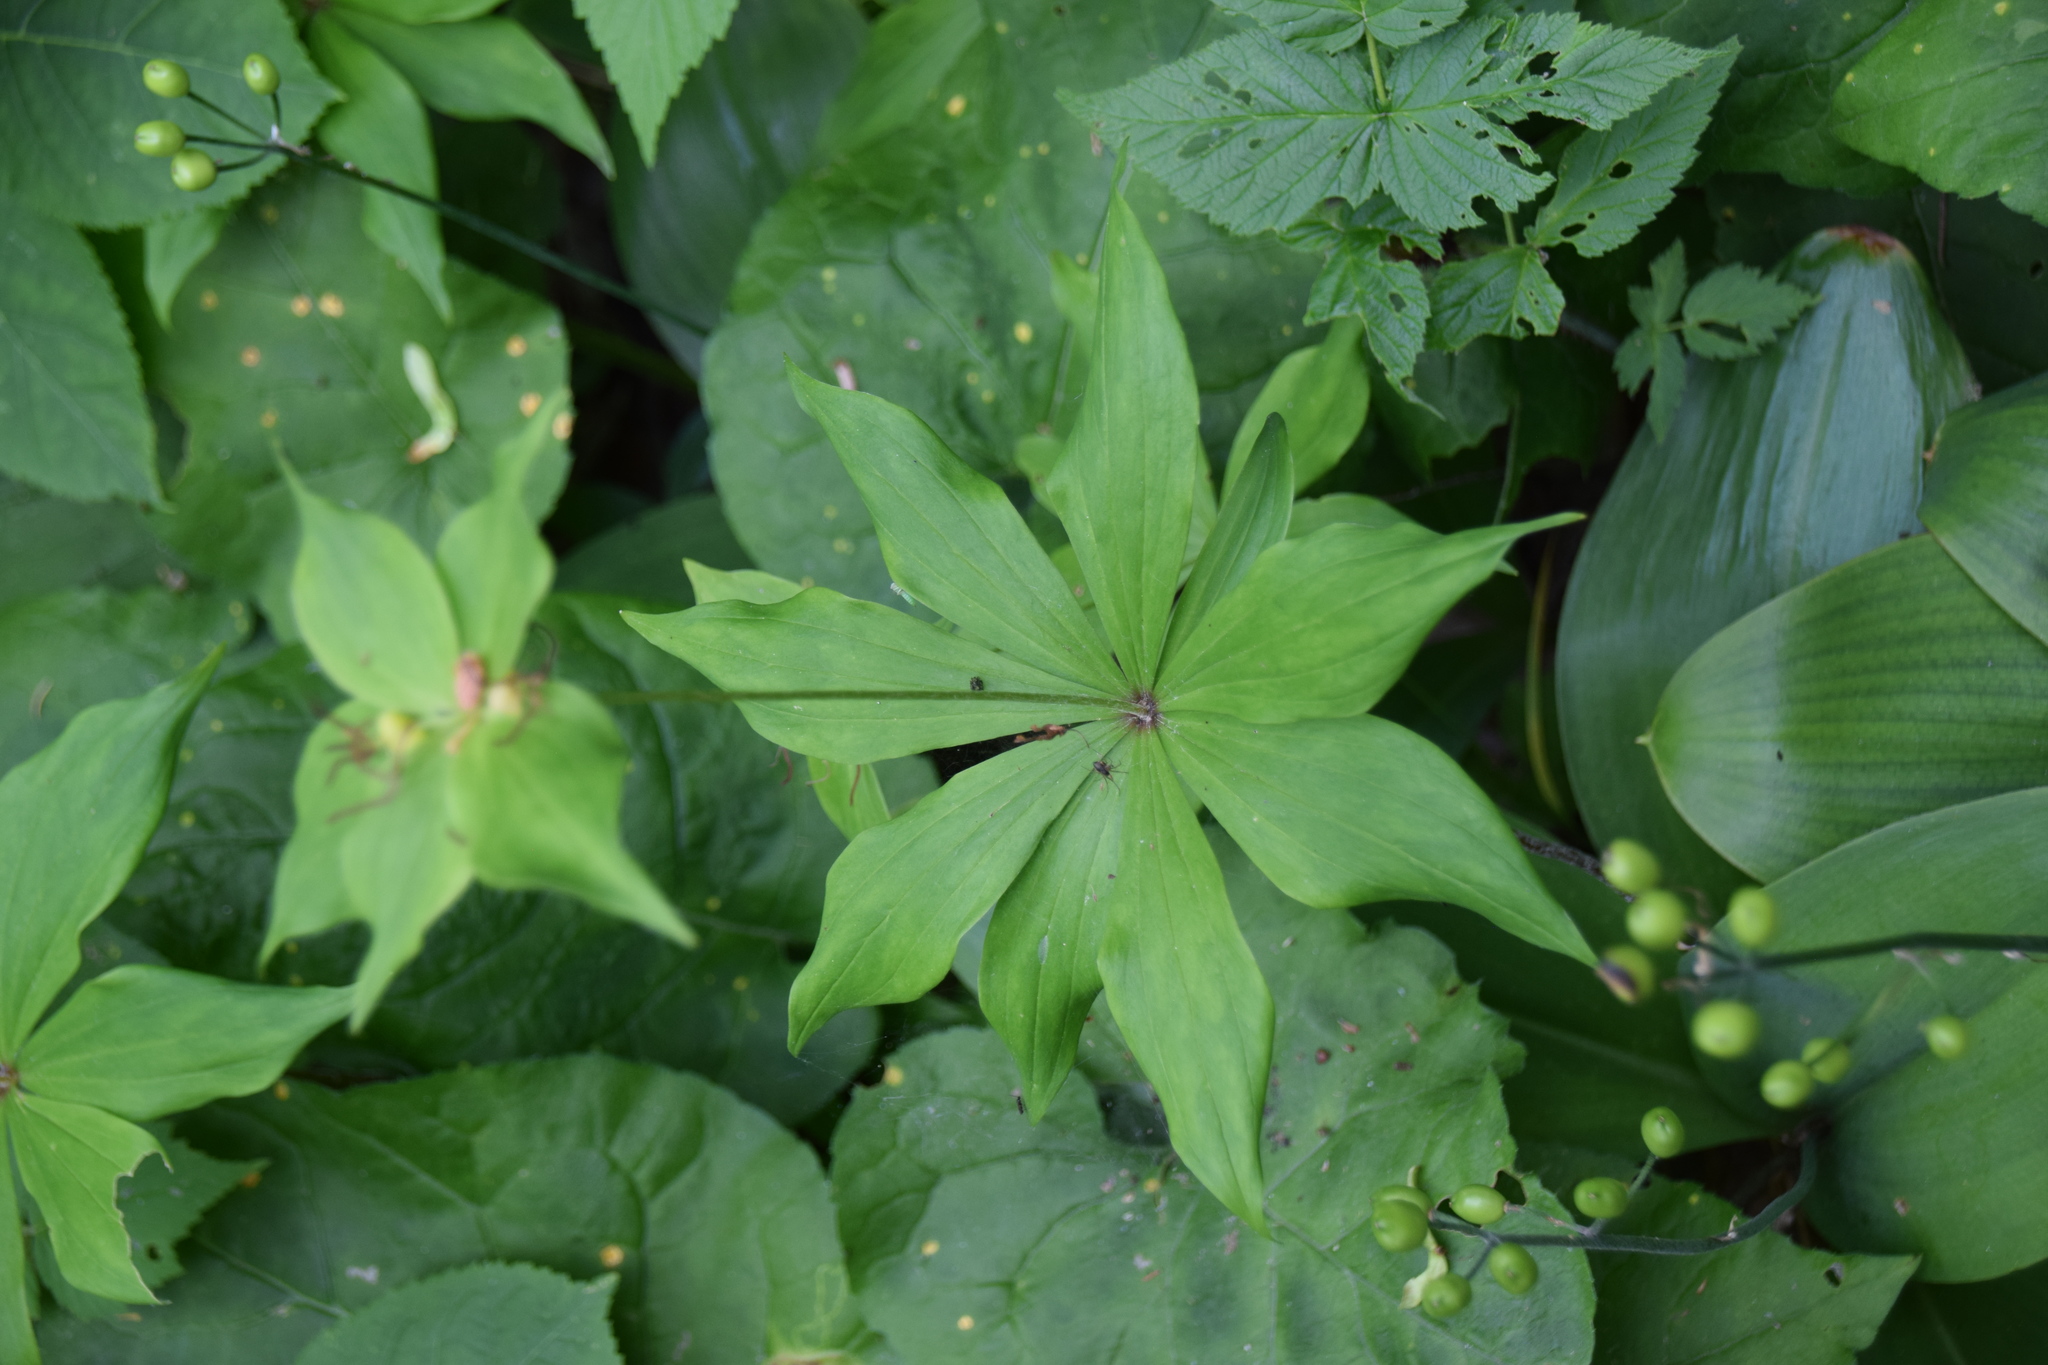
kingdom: Plantae
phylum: Tracheophyta
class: Liliopsida
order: Liliales
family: Liliaceae
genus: Medeola
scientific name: Medeola virginiana
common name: Indian cucumber-root
